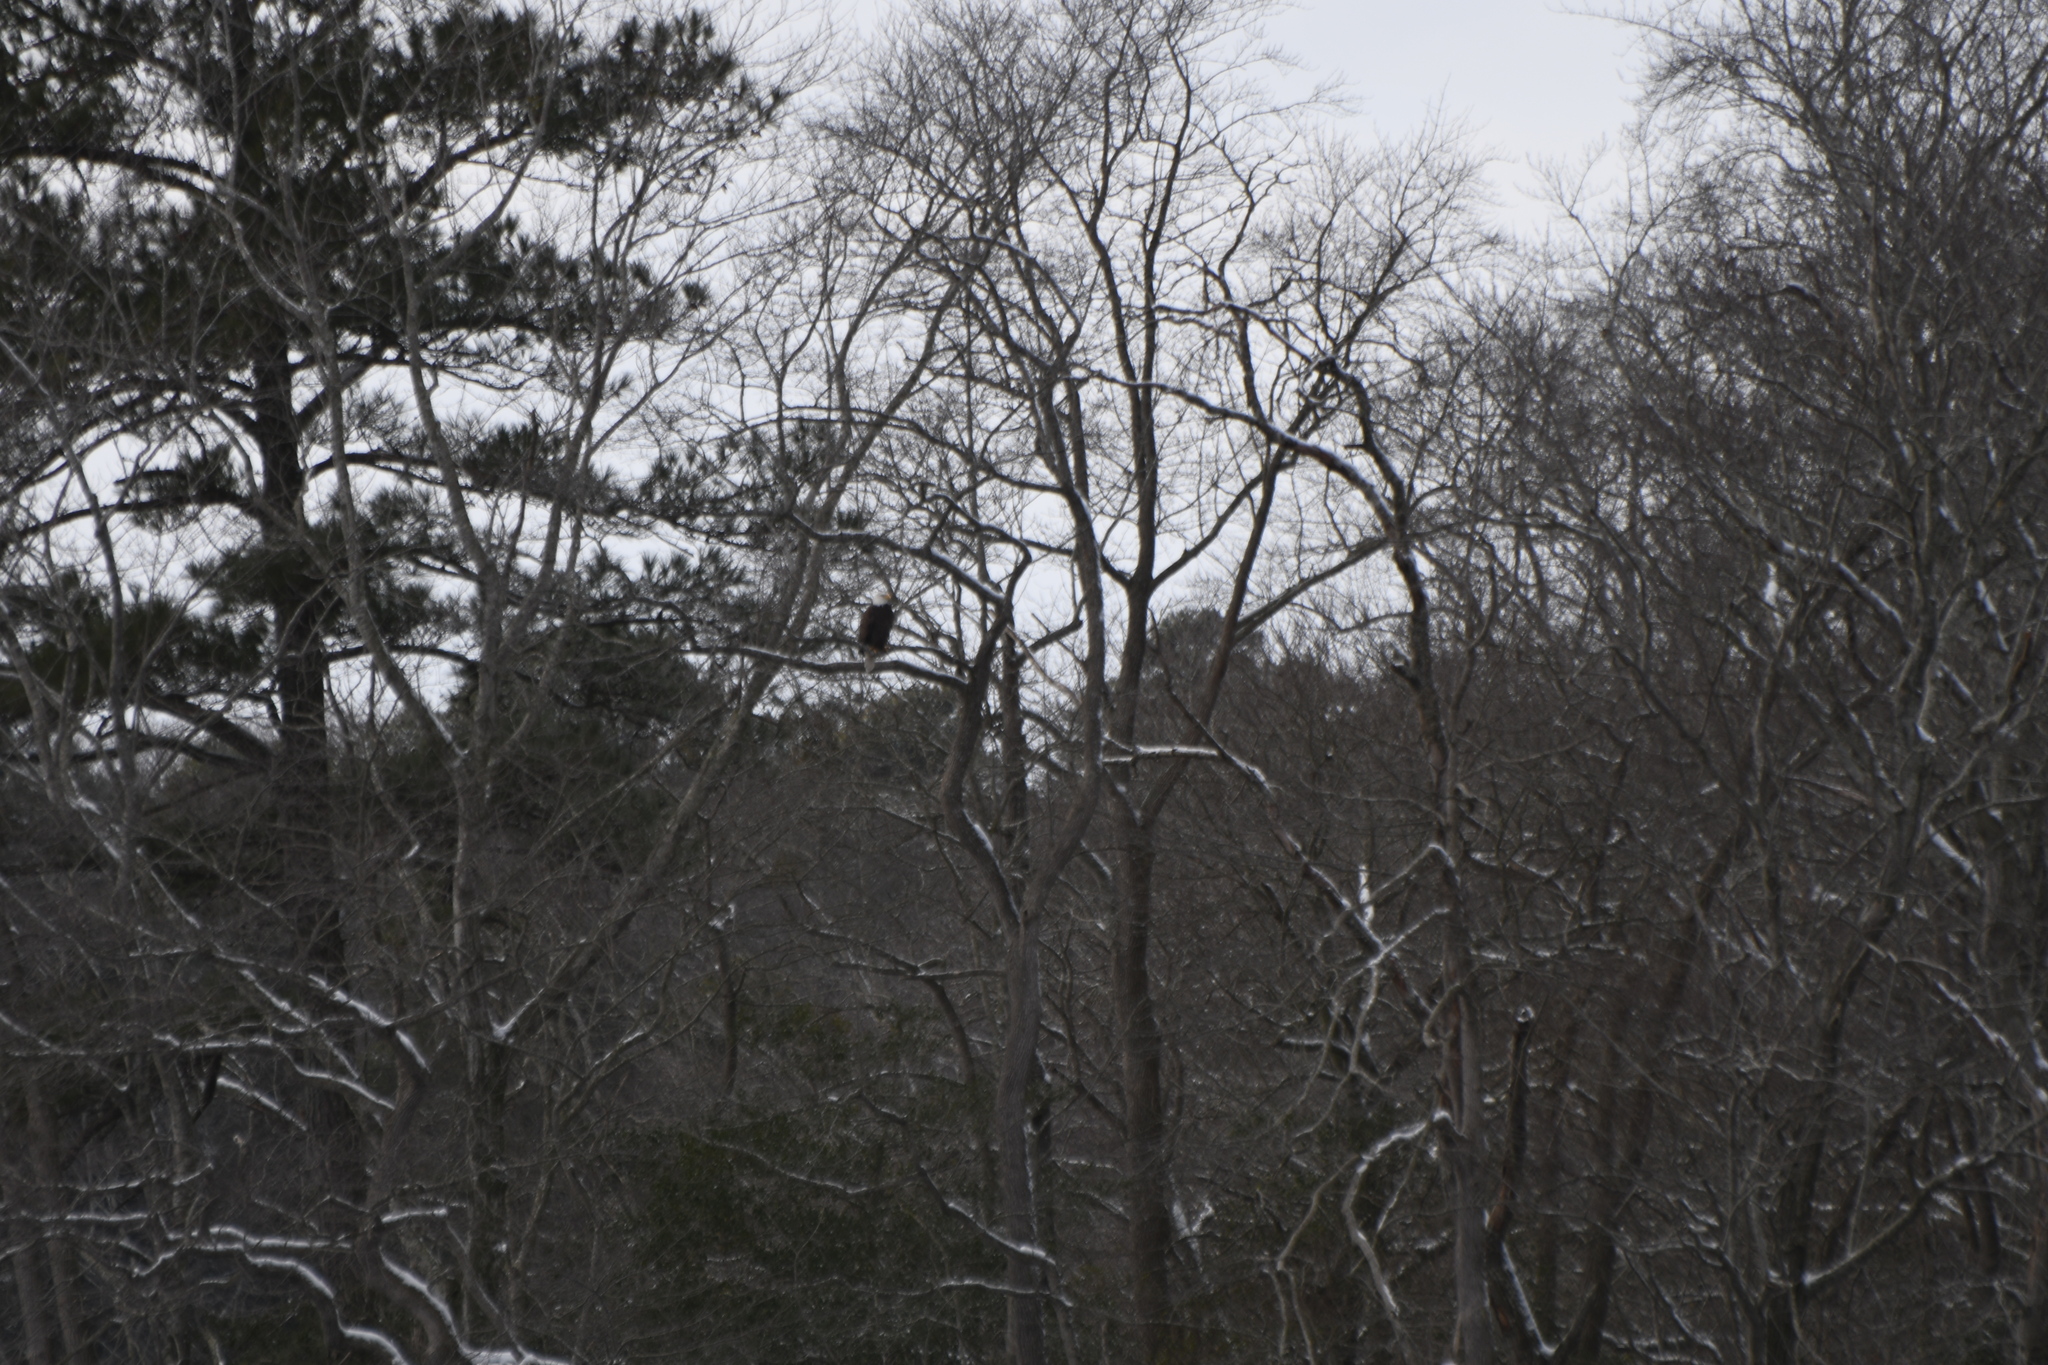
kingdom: Animalia
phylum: Chordata
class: Aves
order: Accipitriformes
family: Accipitridae
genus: Haliaeetus
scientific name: Haliaeetus leucocephalus
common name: Bald eagle
